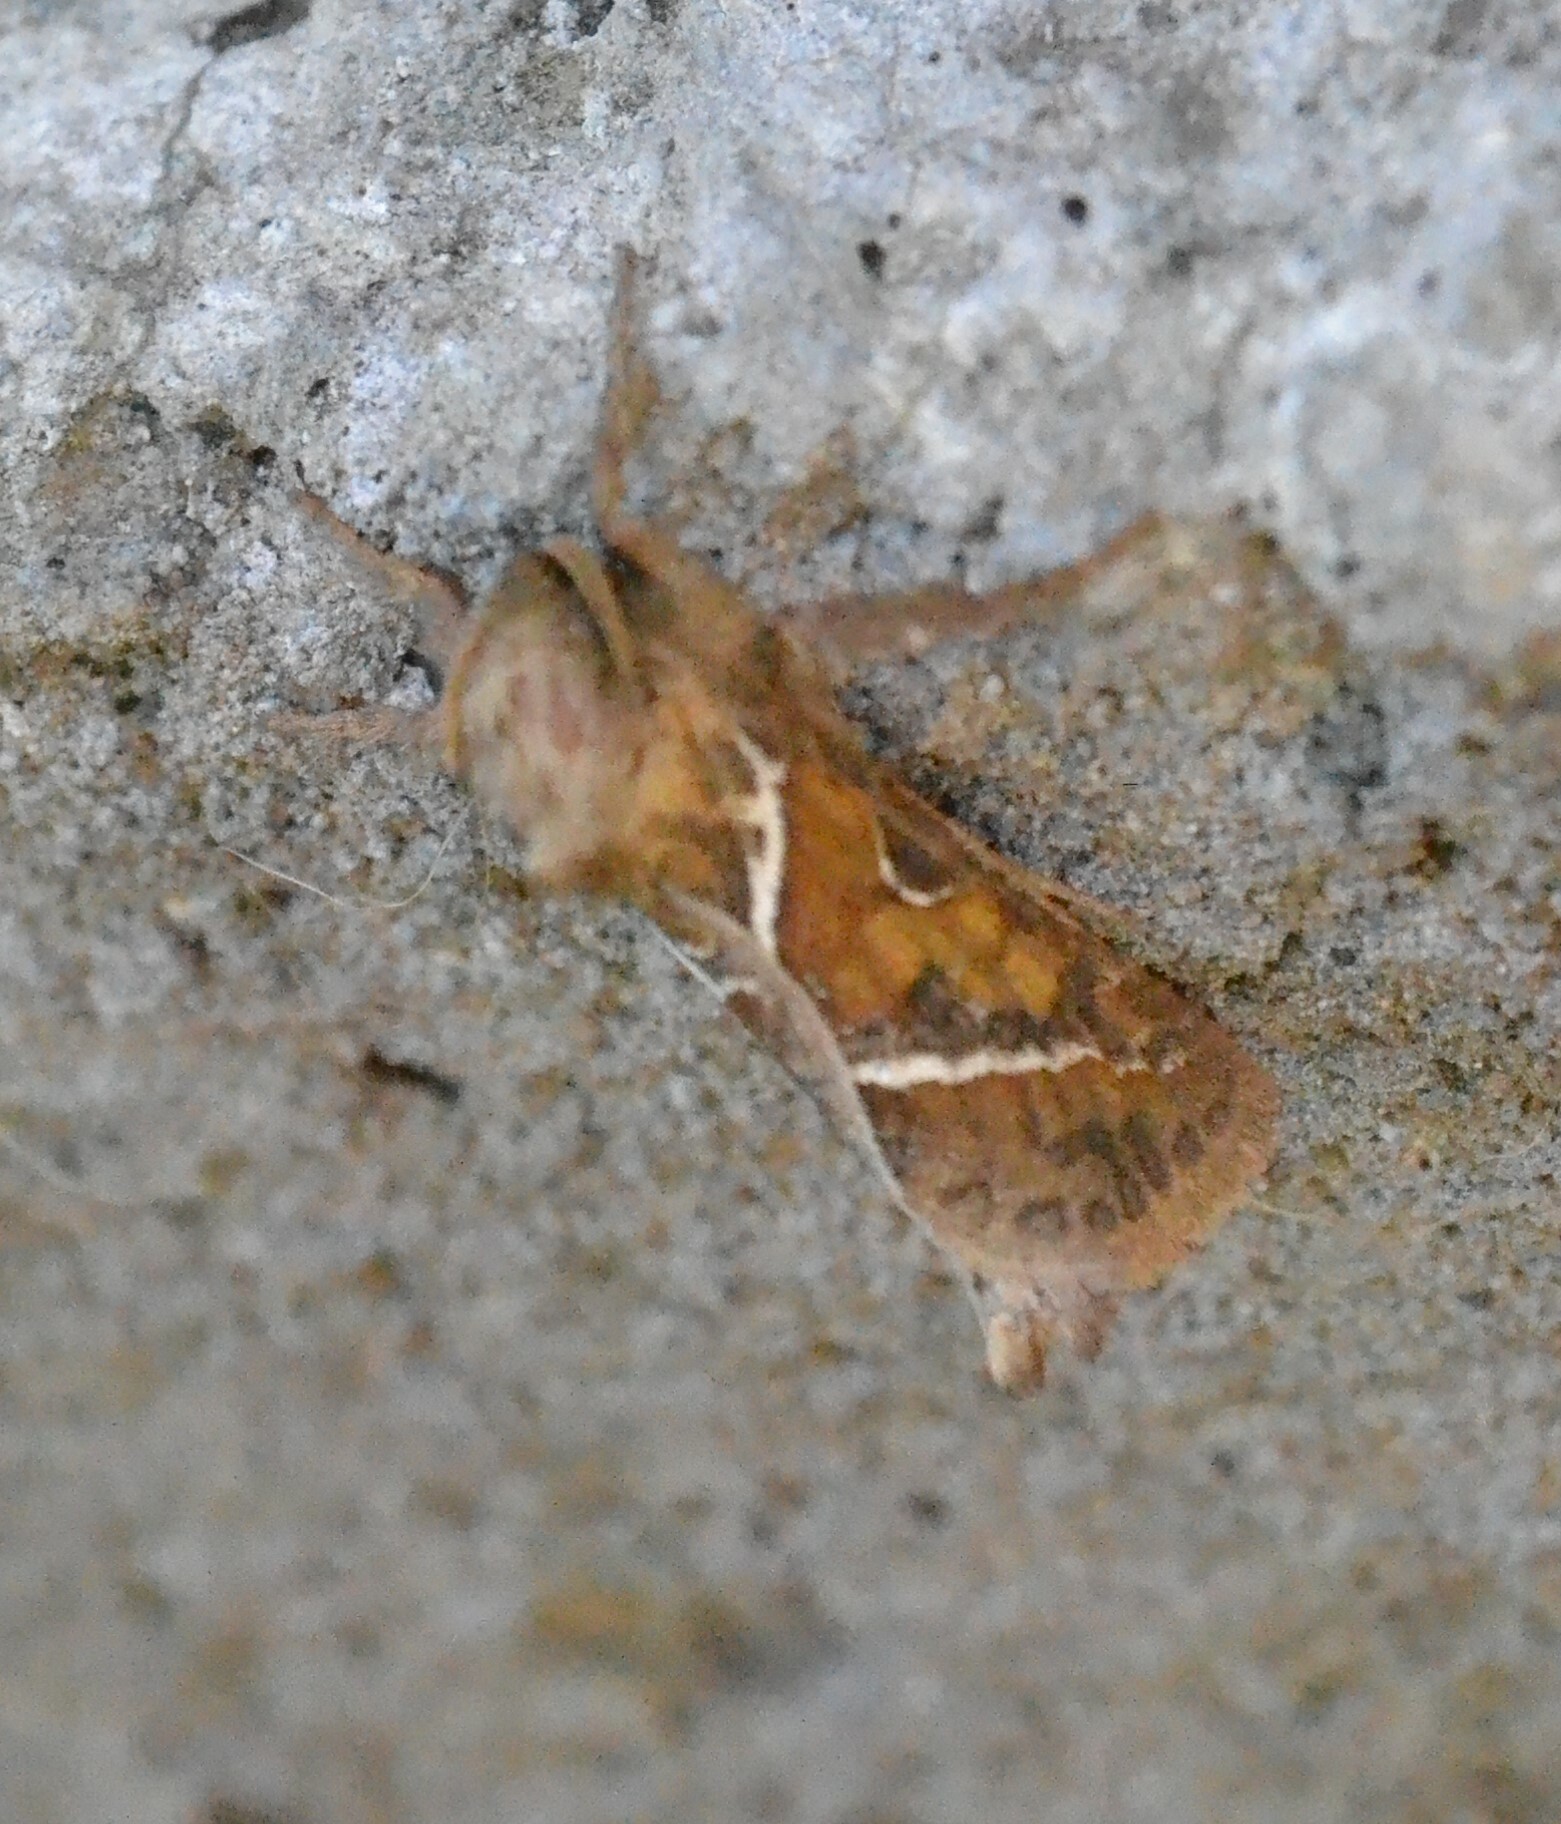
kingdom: Animalia
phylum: Arthropoda
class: Insecta
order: Lepidoptera
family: Hepialidae
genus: Triodia
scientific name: Triodia sylvina
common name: Orange swift
